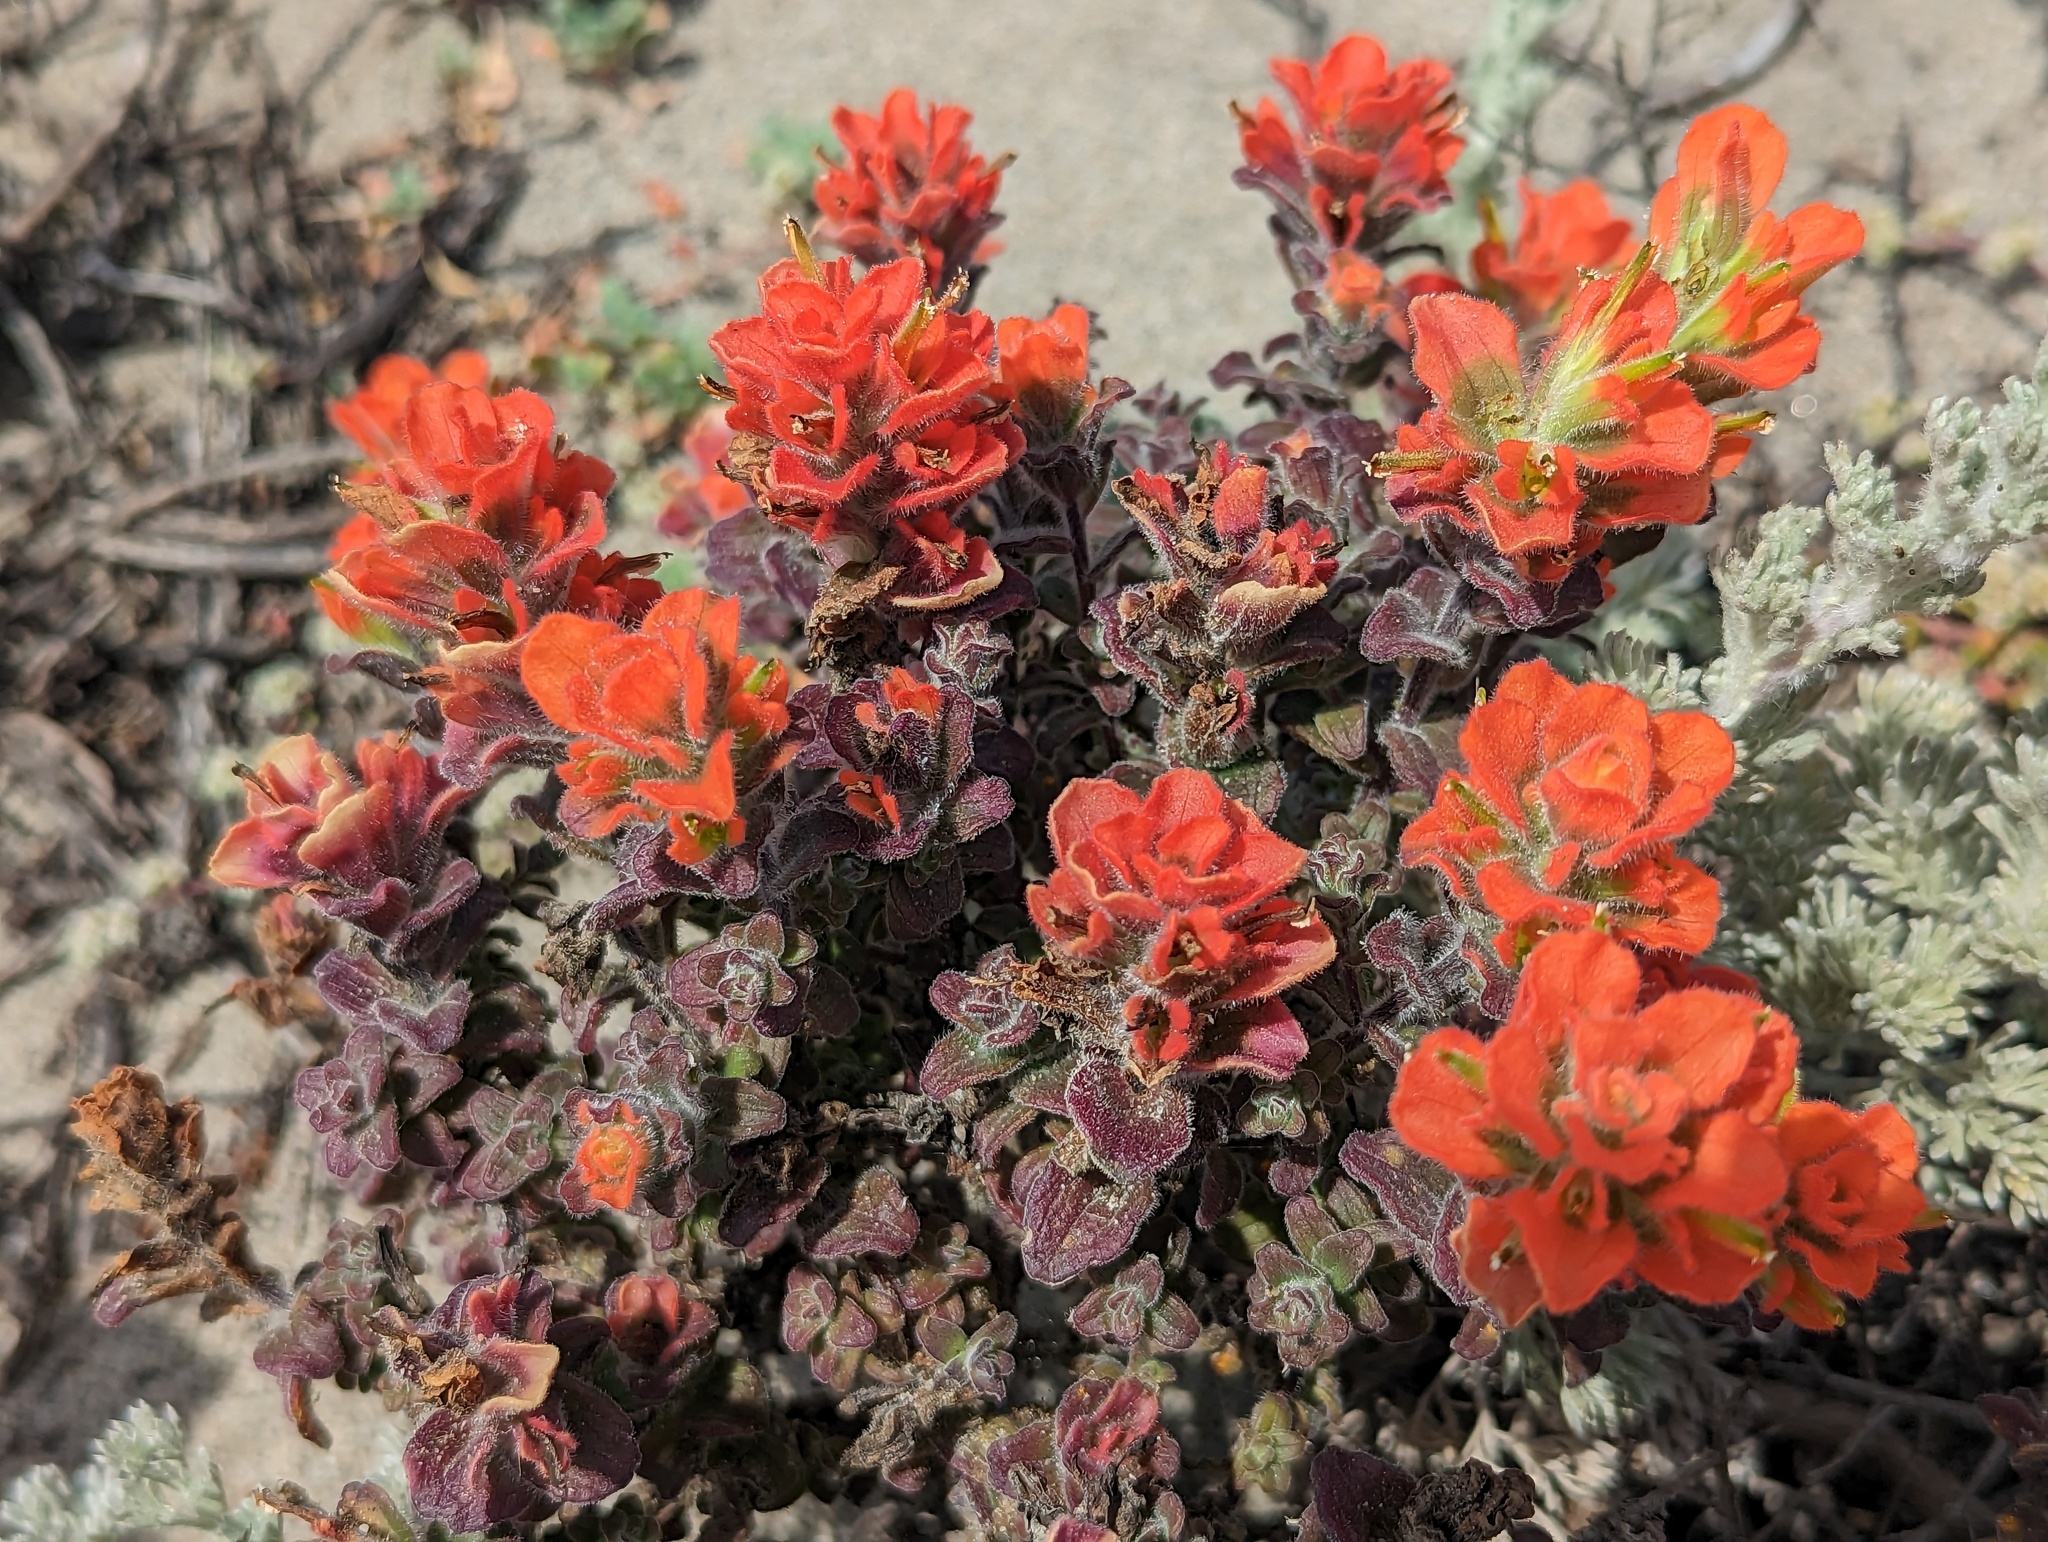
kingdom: Plantae
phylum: Tracheophyta
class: Magnoliopsida
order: Lamiales
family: Orobanchaceae
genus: Castilleja
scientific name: Castilleja latifolia
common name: Monterey indian paintbrush
